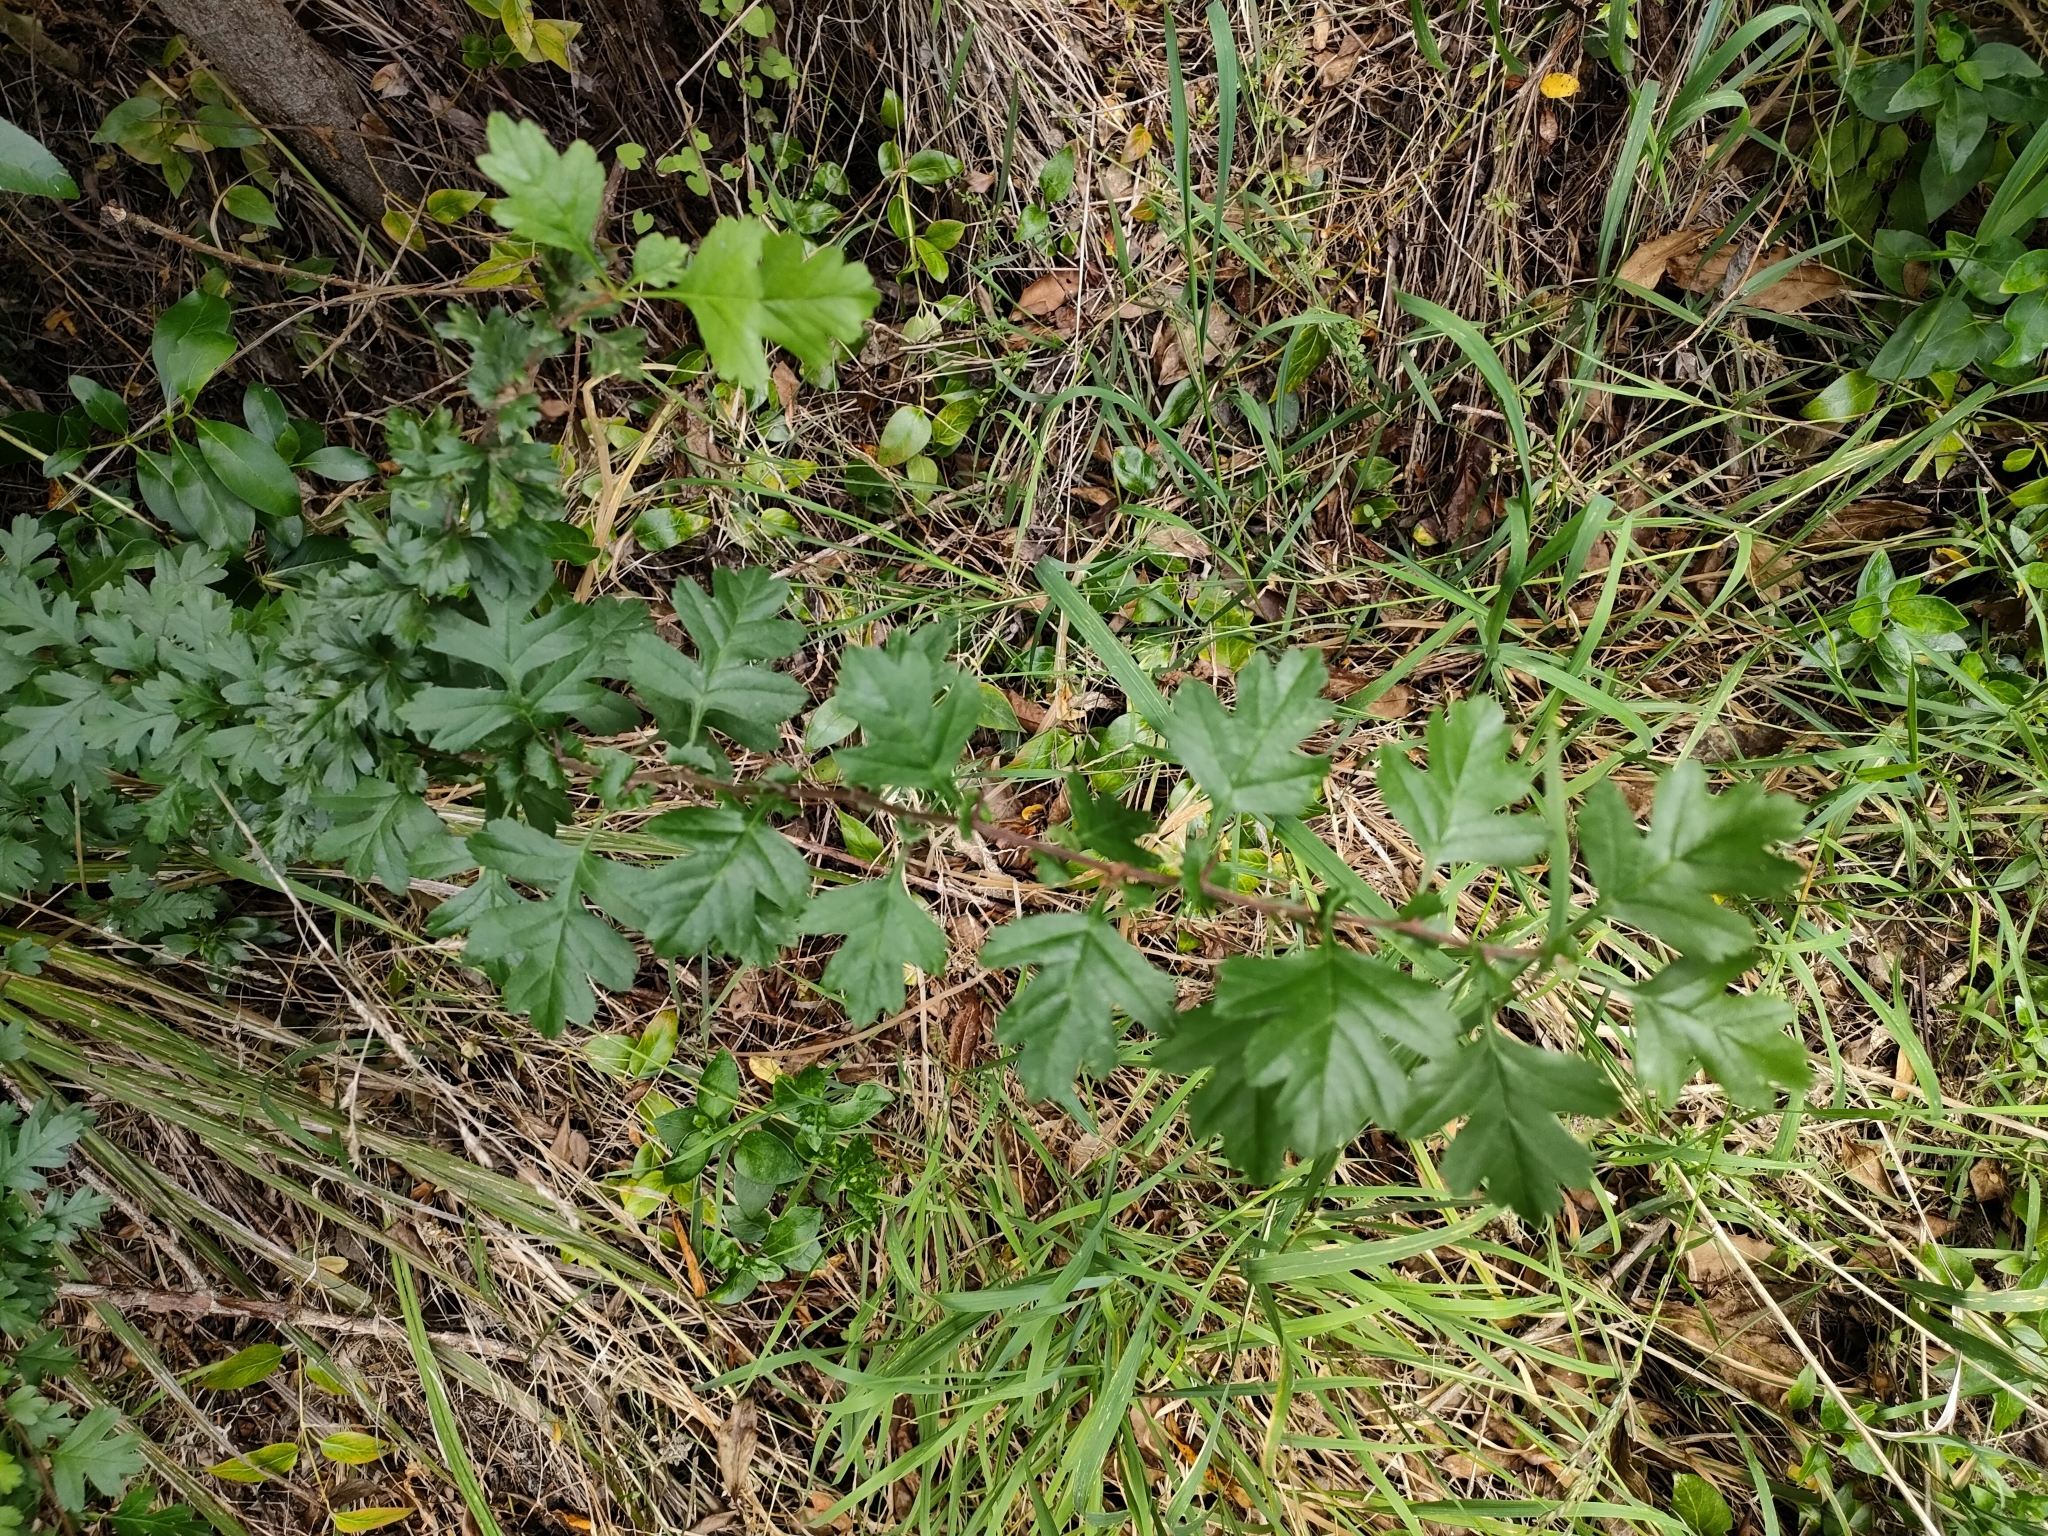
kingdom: Plantae
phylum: Tracheophyta
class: Magnoliopsida
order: Rosales
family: Rosaceae
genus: Crataegus
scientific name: Crataegus monogyna
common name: Hawthorn
